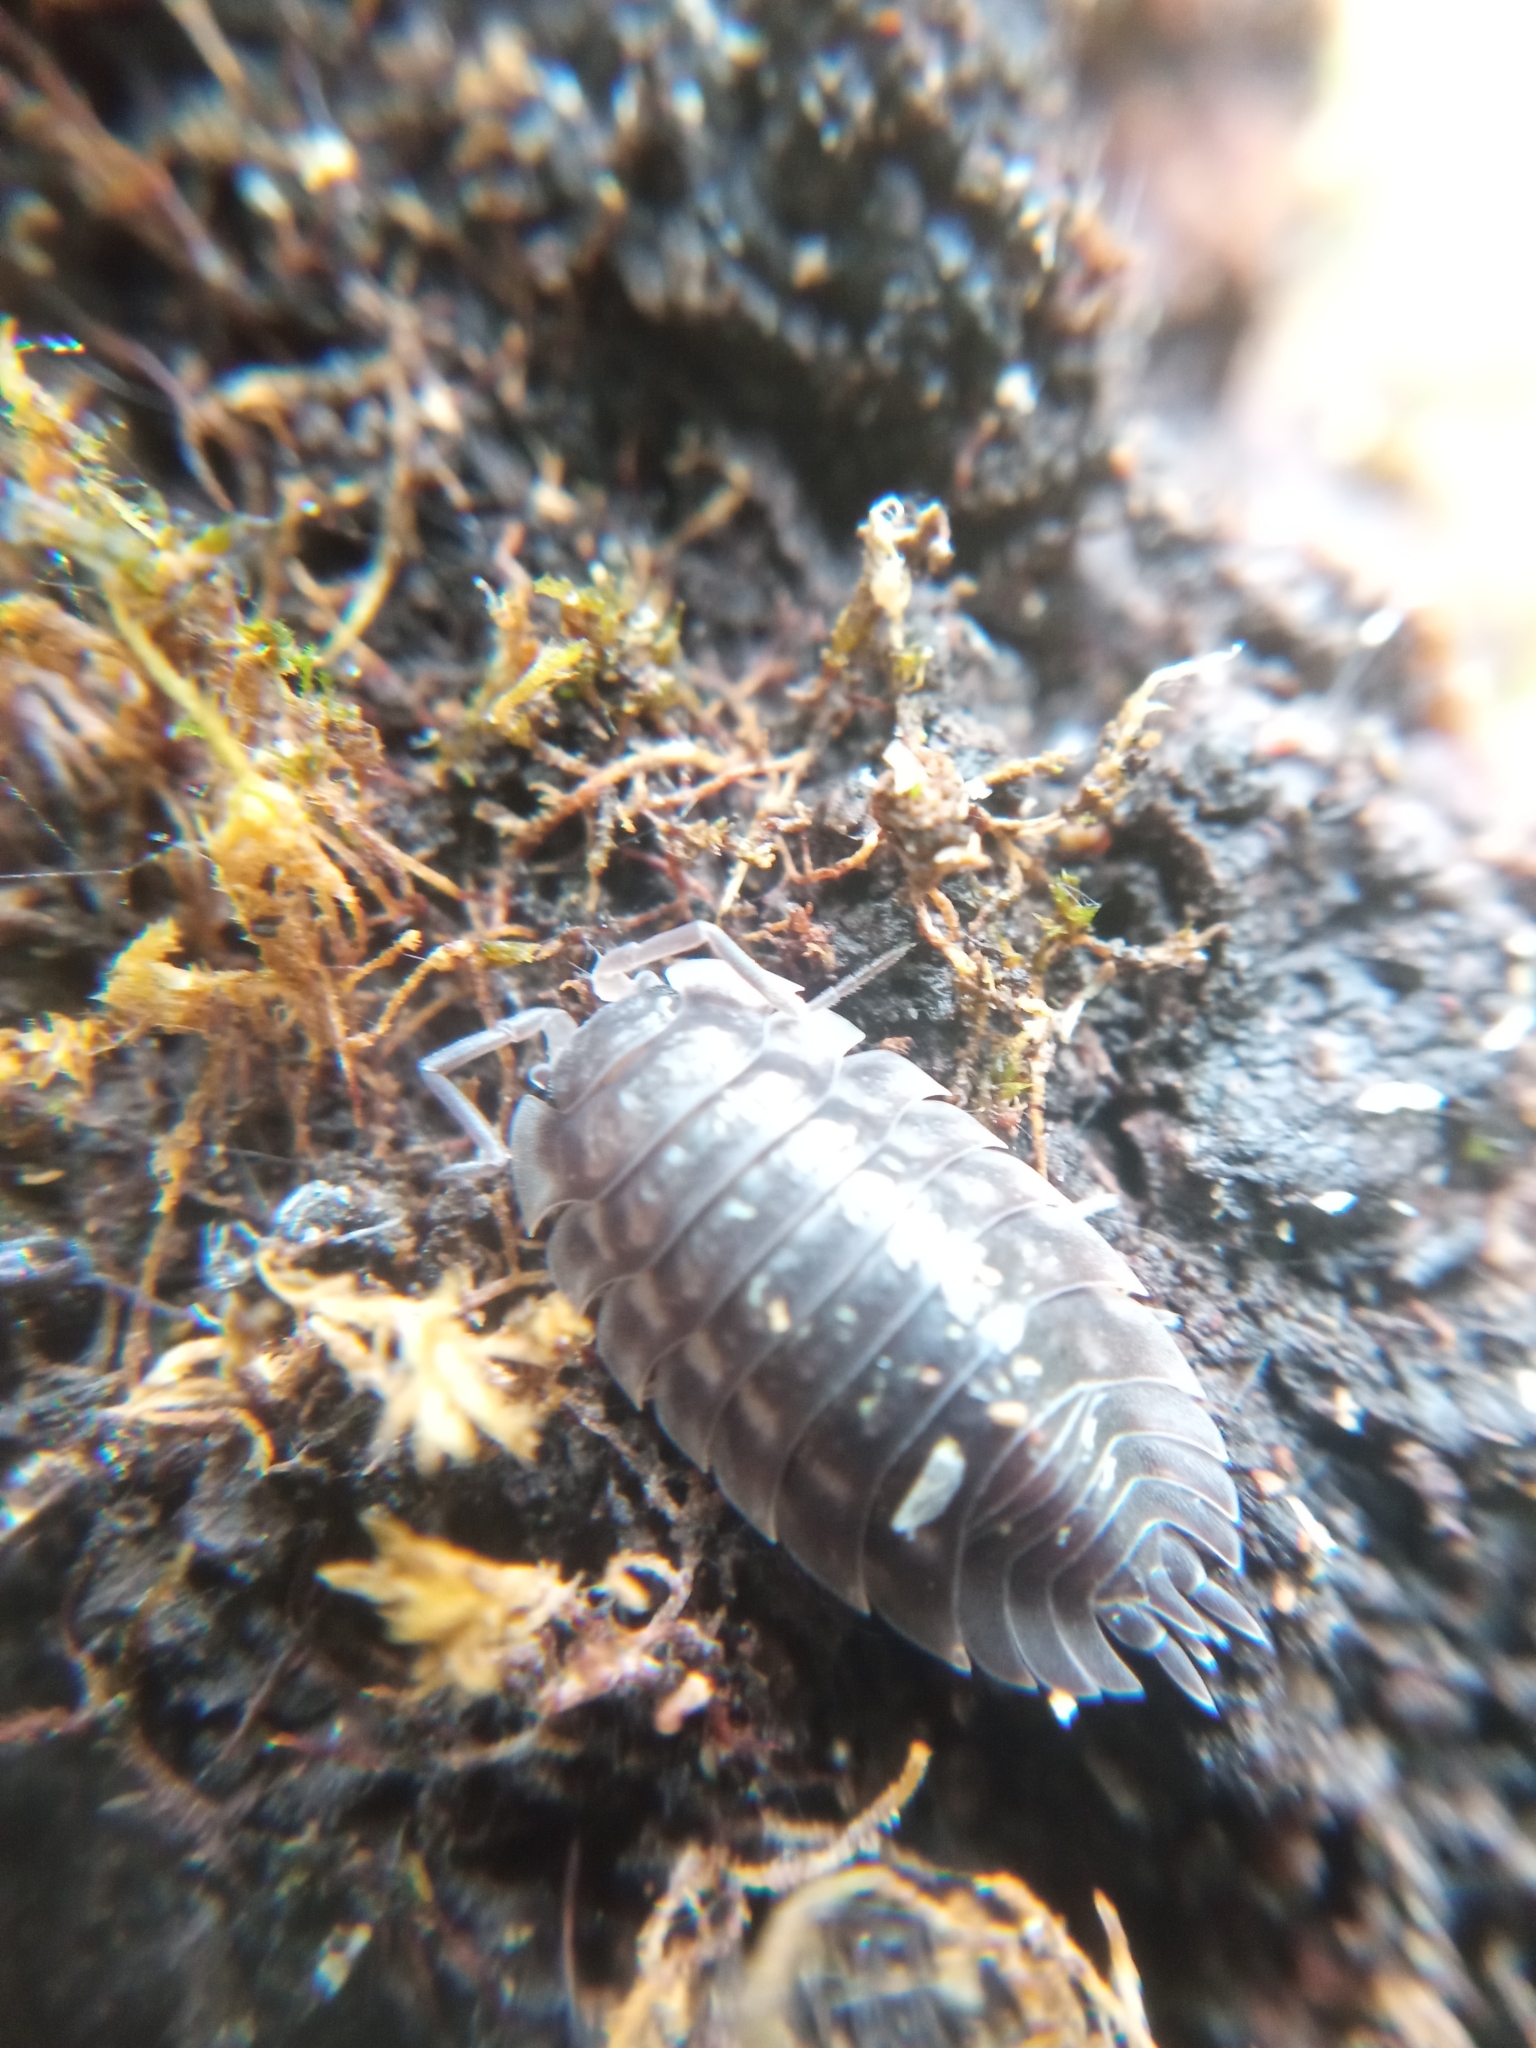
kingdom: Animalia
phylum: Arthropoda
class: Malacostraca
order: Isopoda
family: Oniscidae
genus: Oniscus
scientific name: Oniscus asellus
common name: Common shiny woodlouse
